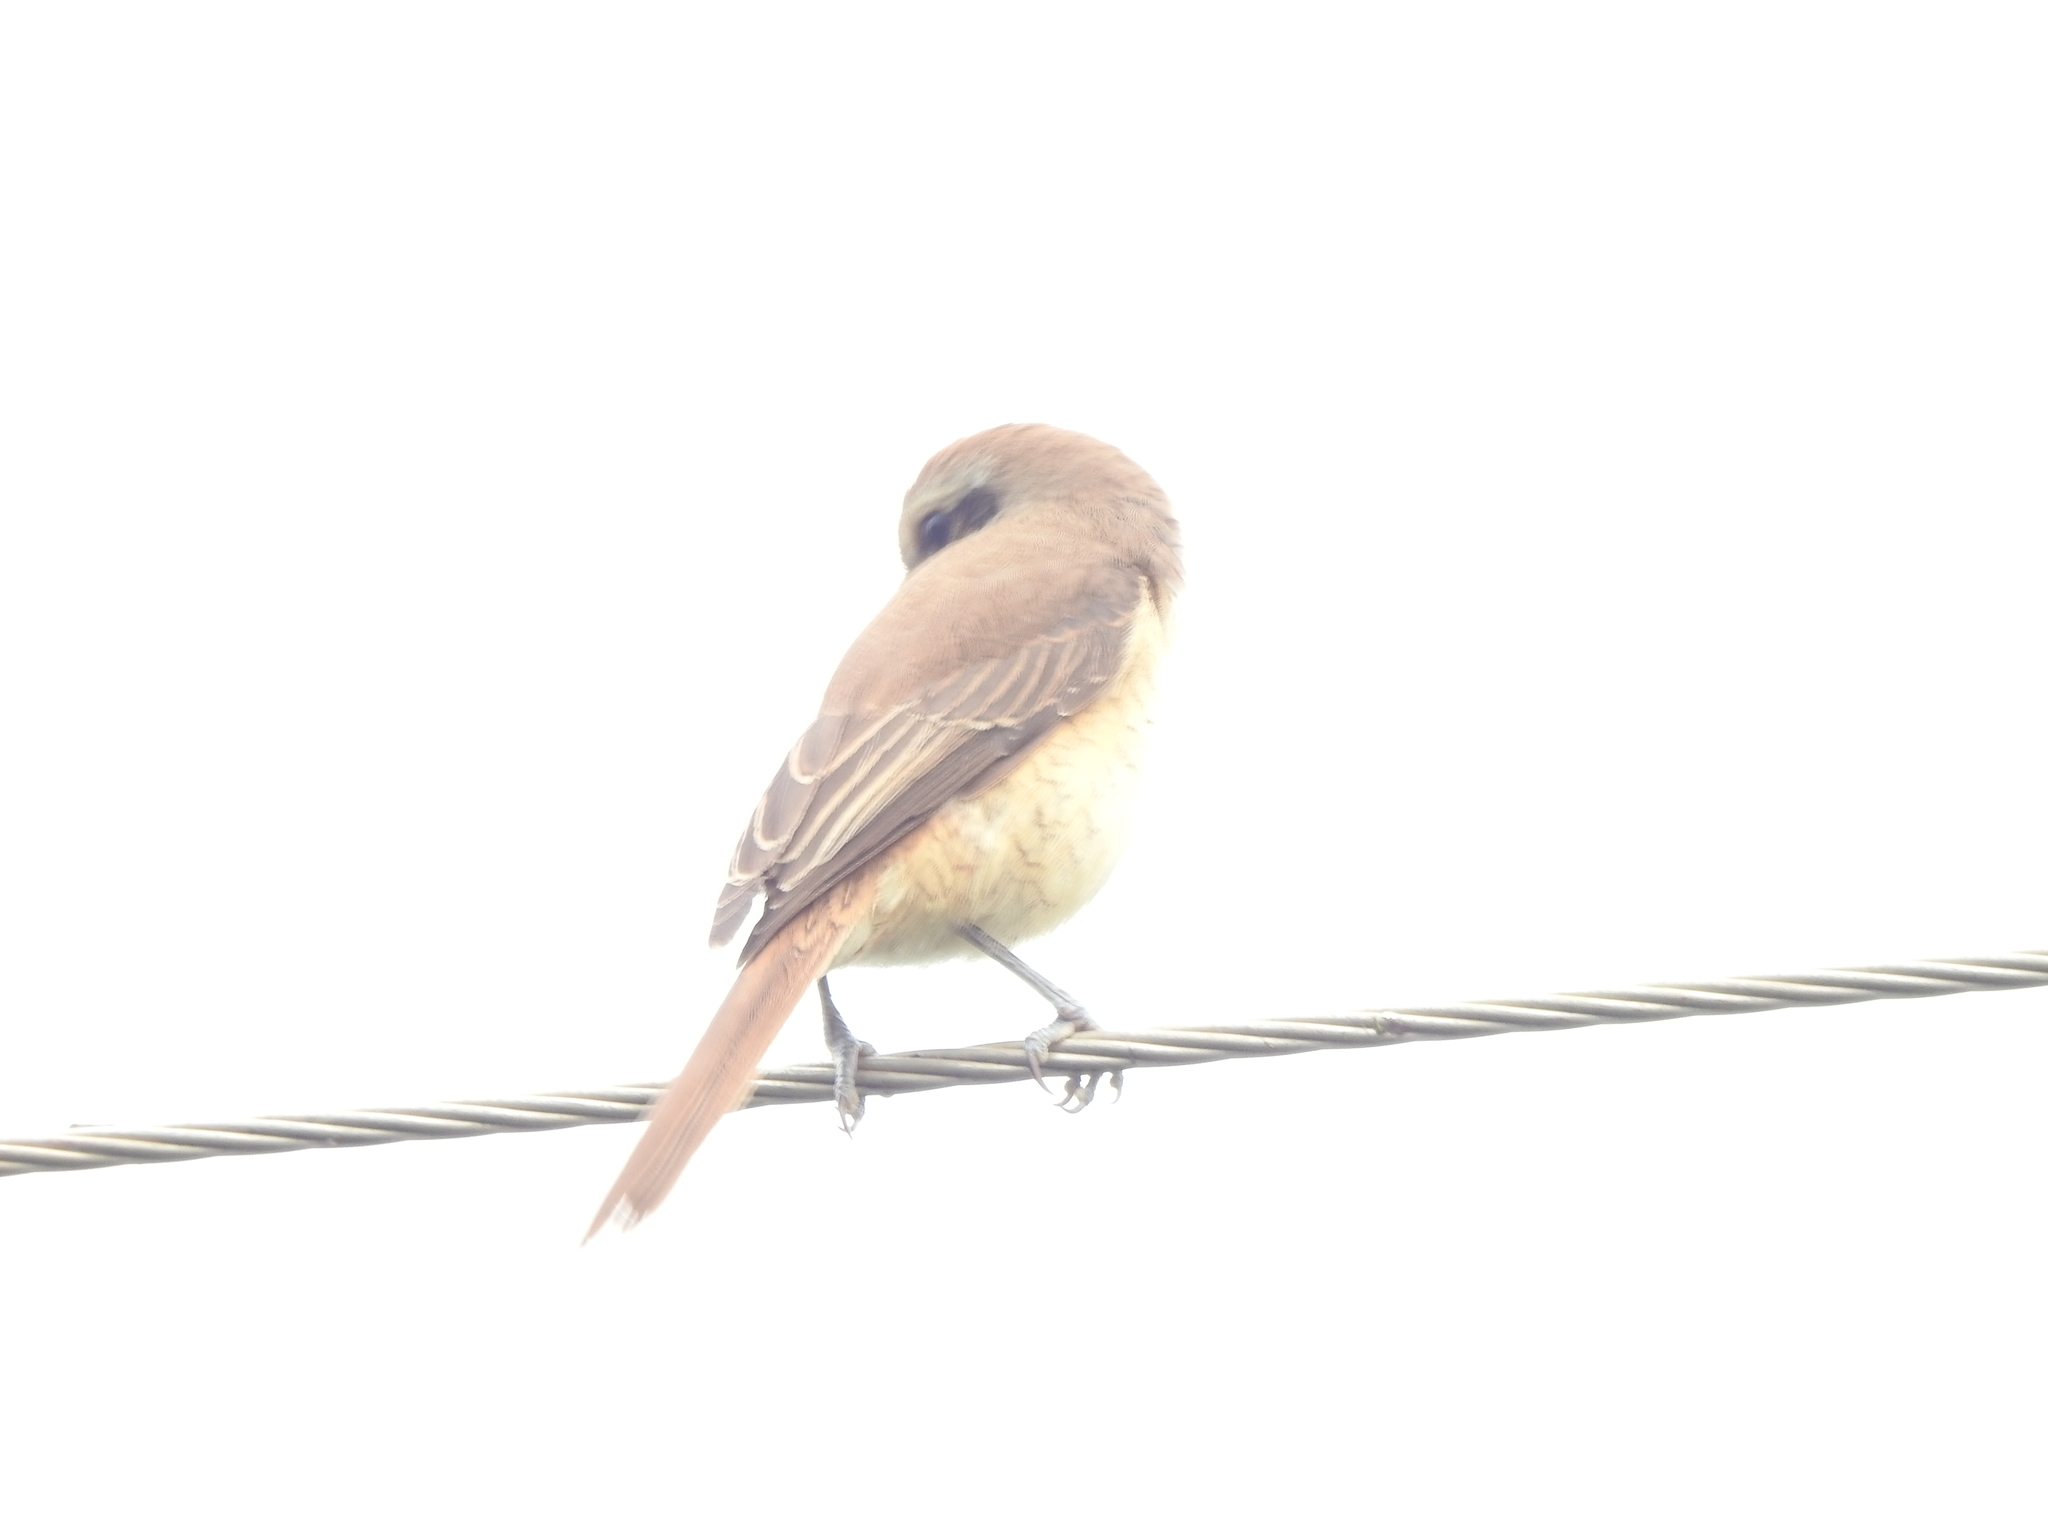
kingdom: Animalia
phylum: Chordata
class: Aves
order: Passeriformes
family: Laniidae
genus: Lanius
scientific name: Lanius cristatus
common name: Brown shrike
